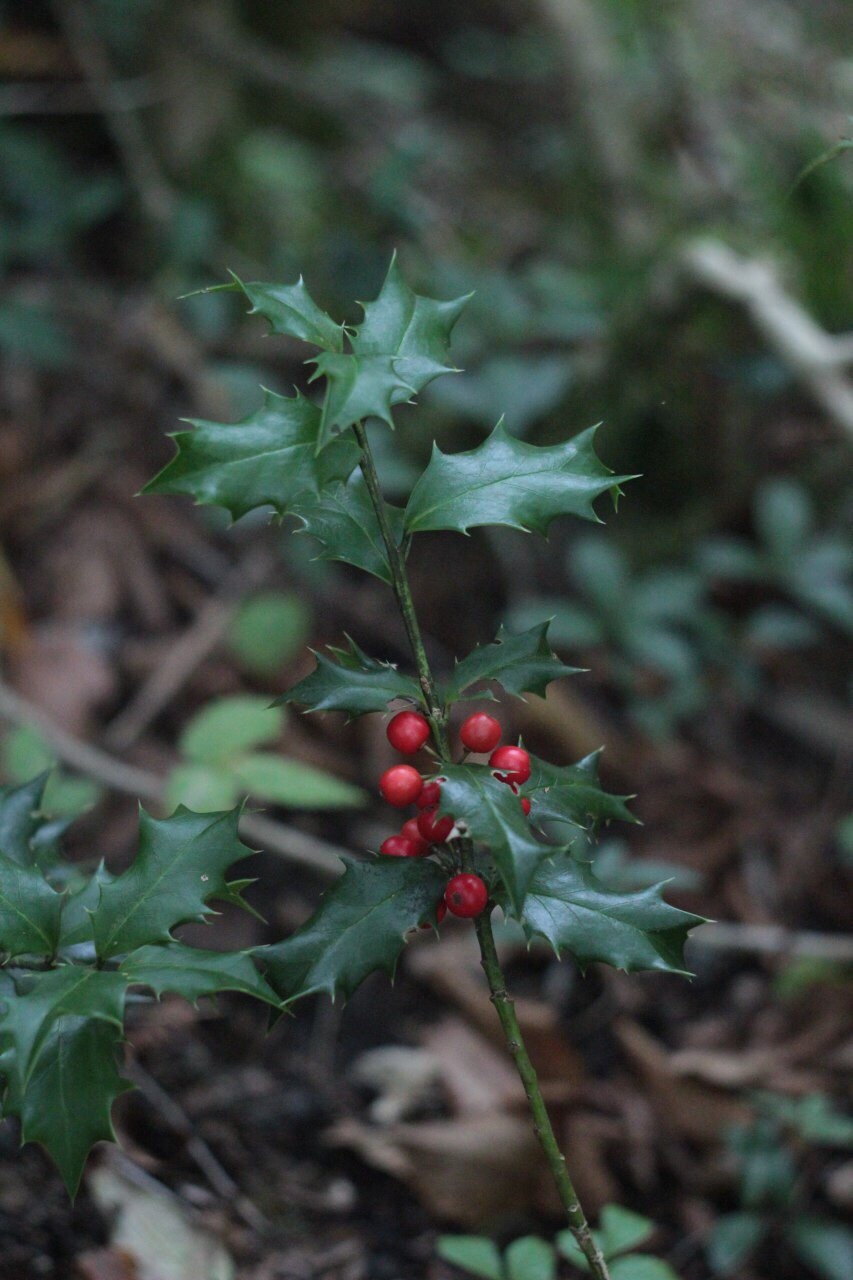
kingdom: Plantae
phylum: Tracheophyta
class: Magnoliopsida
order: Aquifoliales
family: Aquifoliaceae
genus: Ilex
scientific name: Ilex colchica
